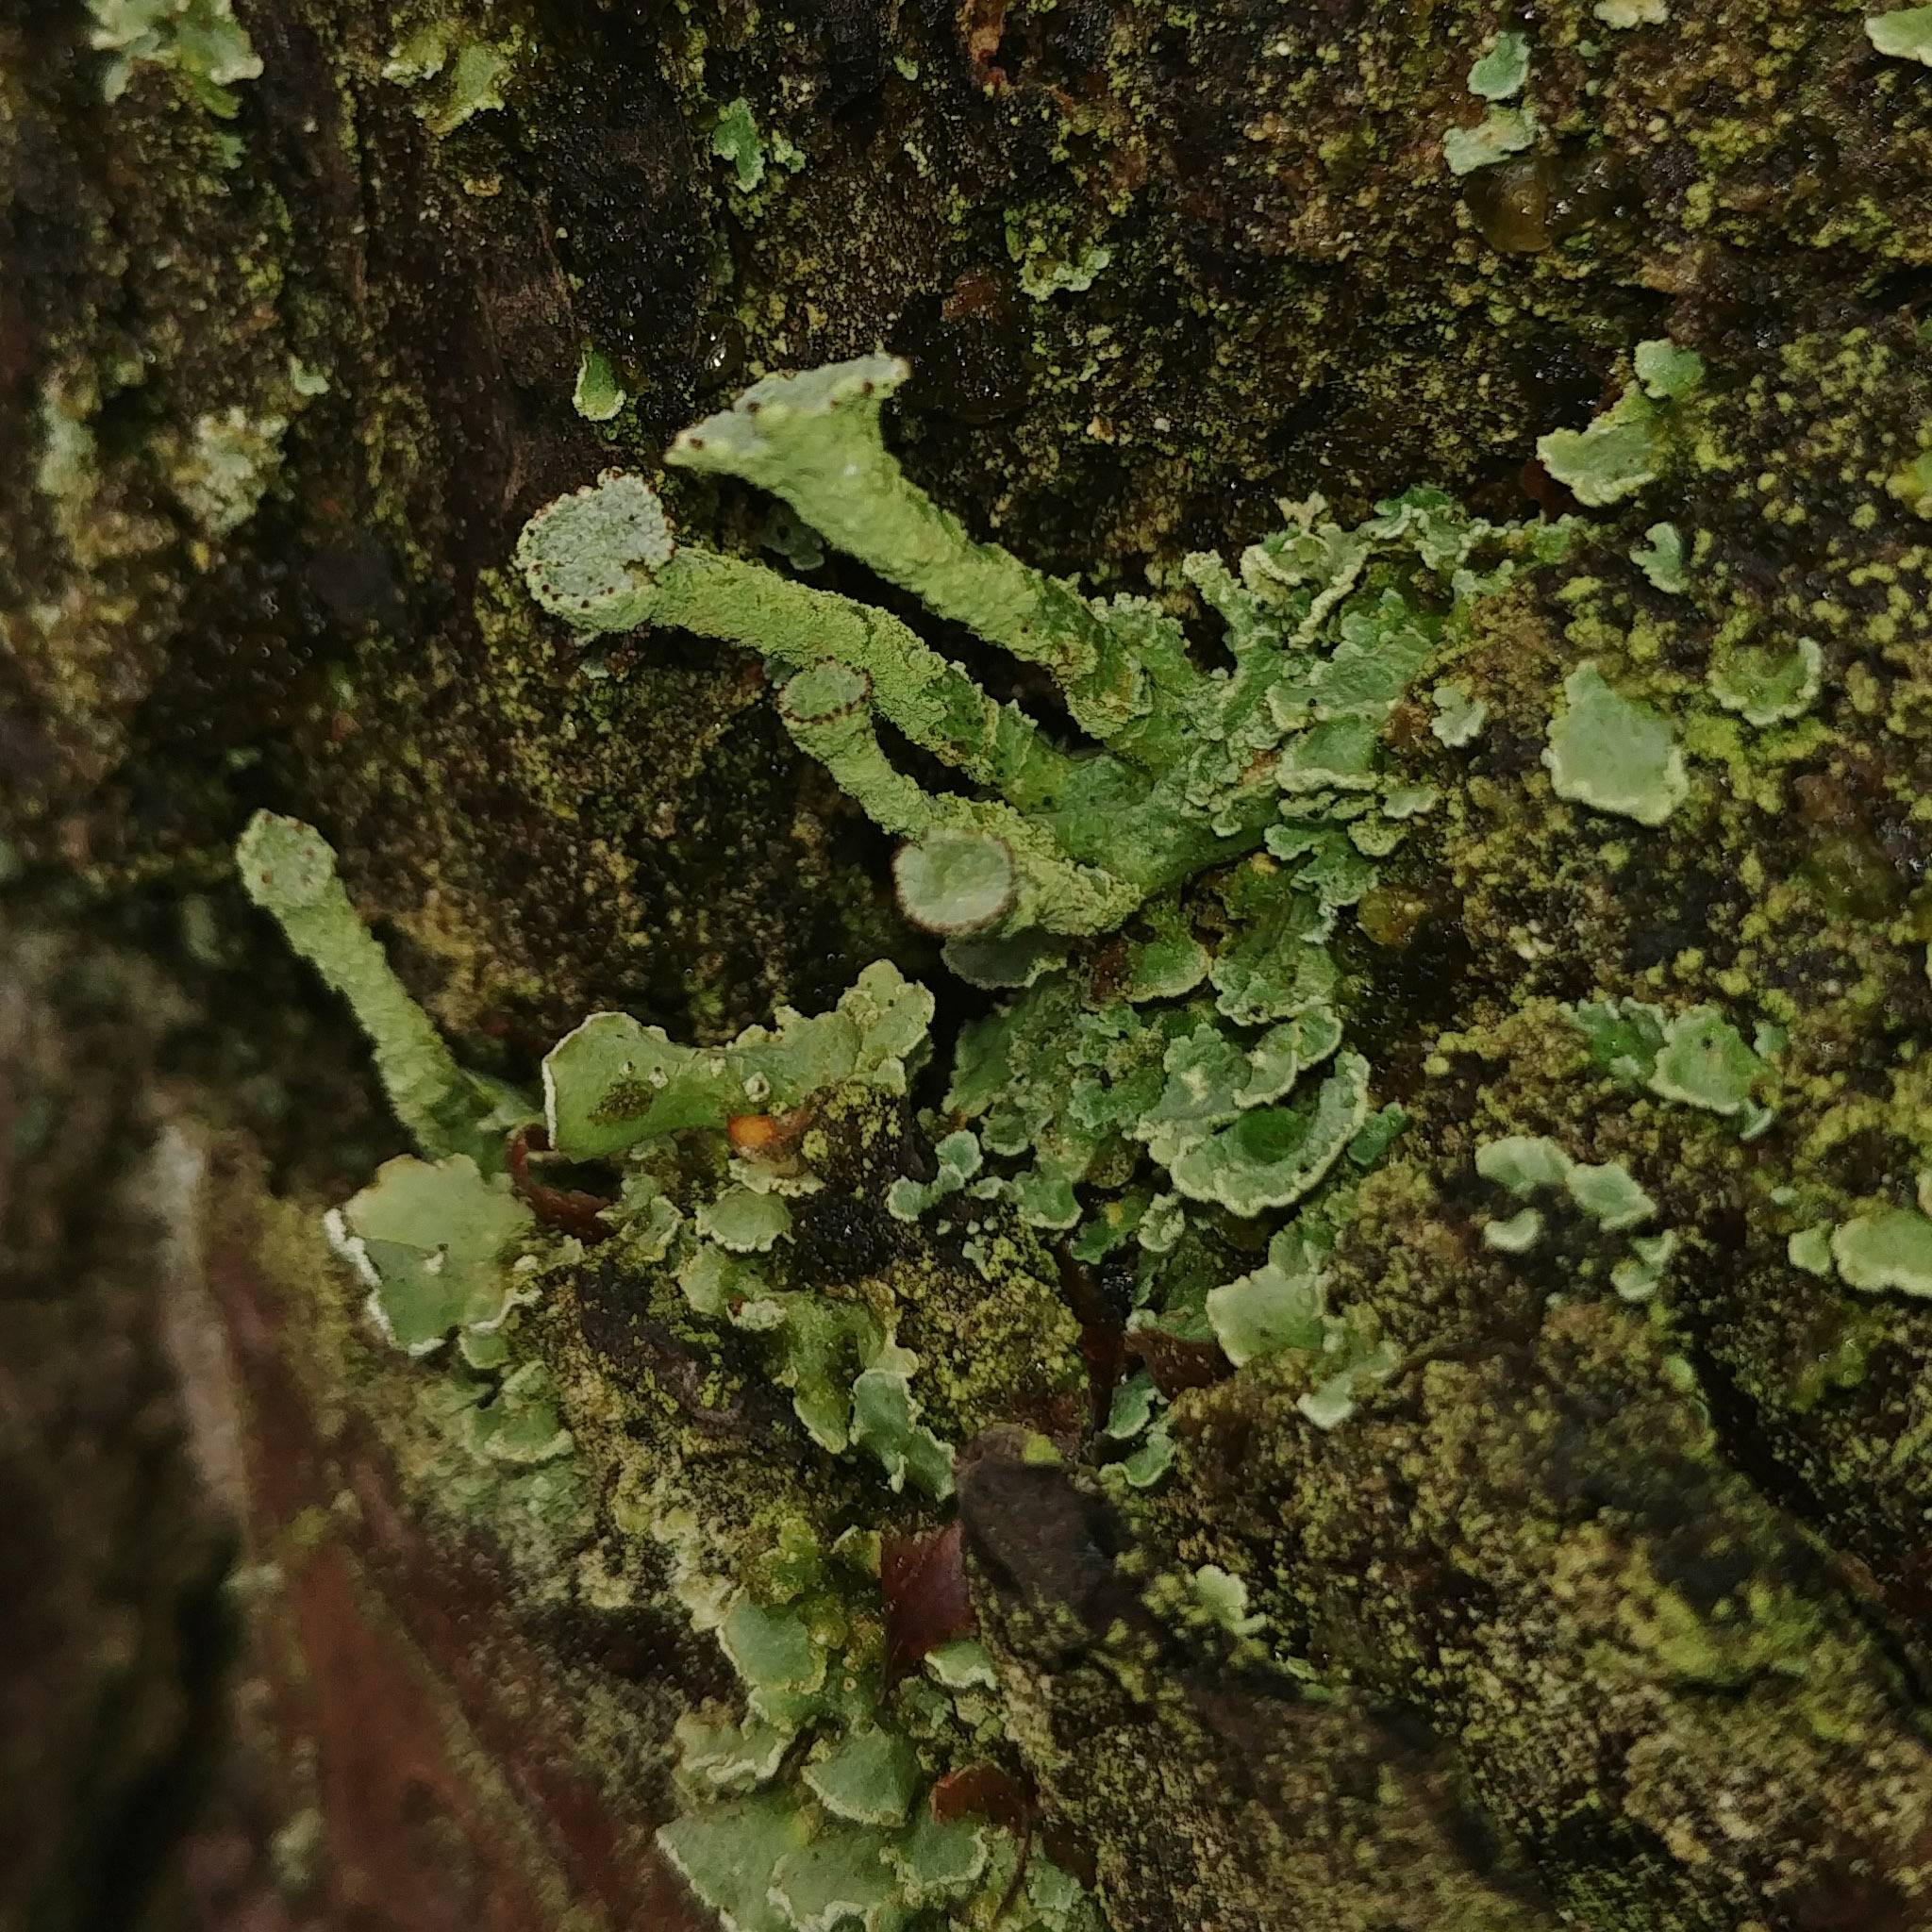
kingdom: Fungi
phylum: Ascomycota
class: Lecanoromycetes
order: Lecanorales
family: Cladoniaceae
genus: Cladonia
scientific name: Cladonia digitata
